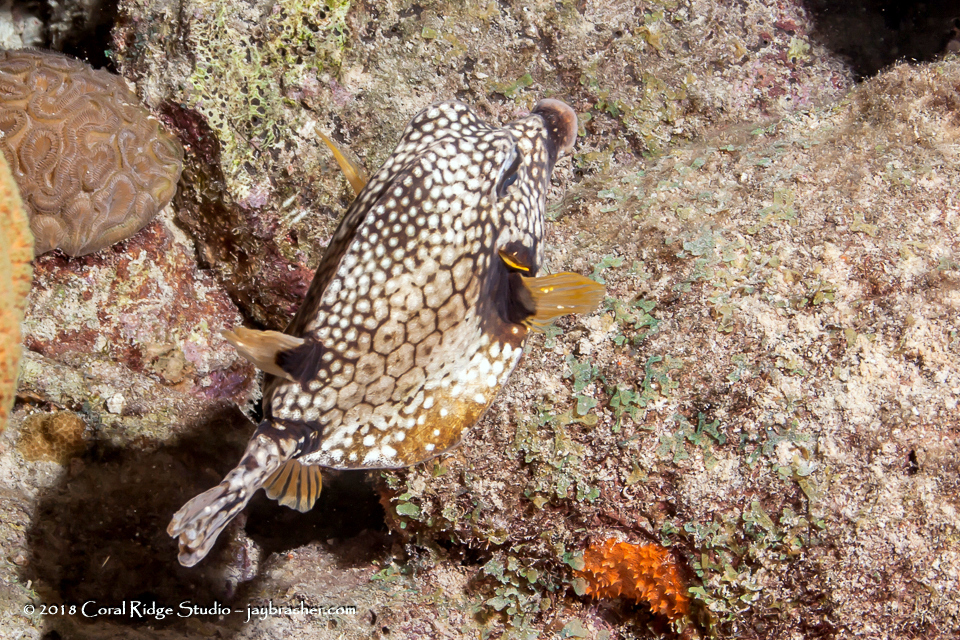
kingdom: Animalia
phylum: Chordata
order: Tetraodontiformes
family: Ostraciidae
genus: Lactophrys
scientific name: Lactophrys triqueter
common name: Smooth trunkfish
